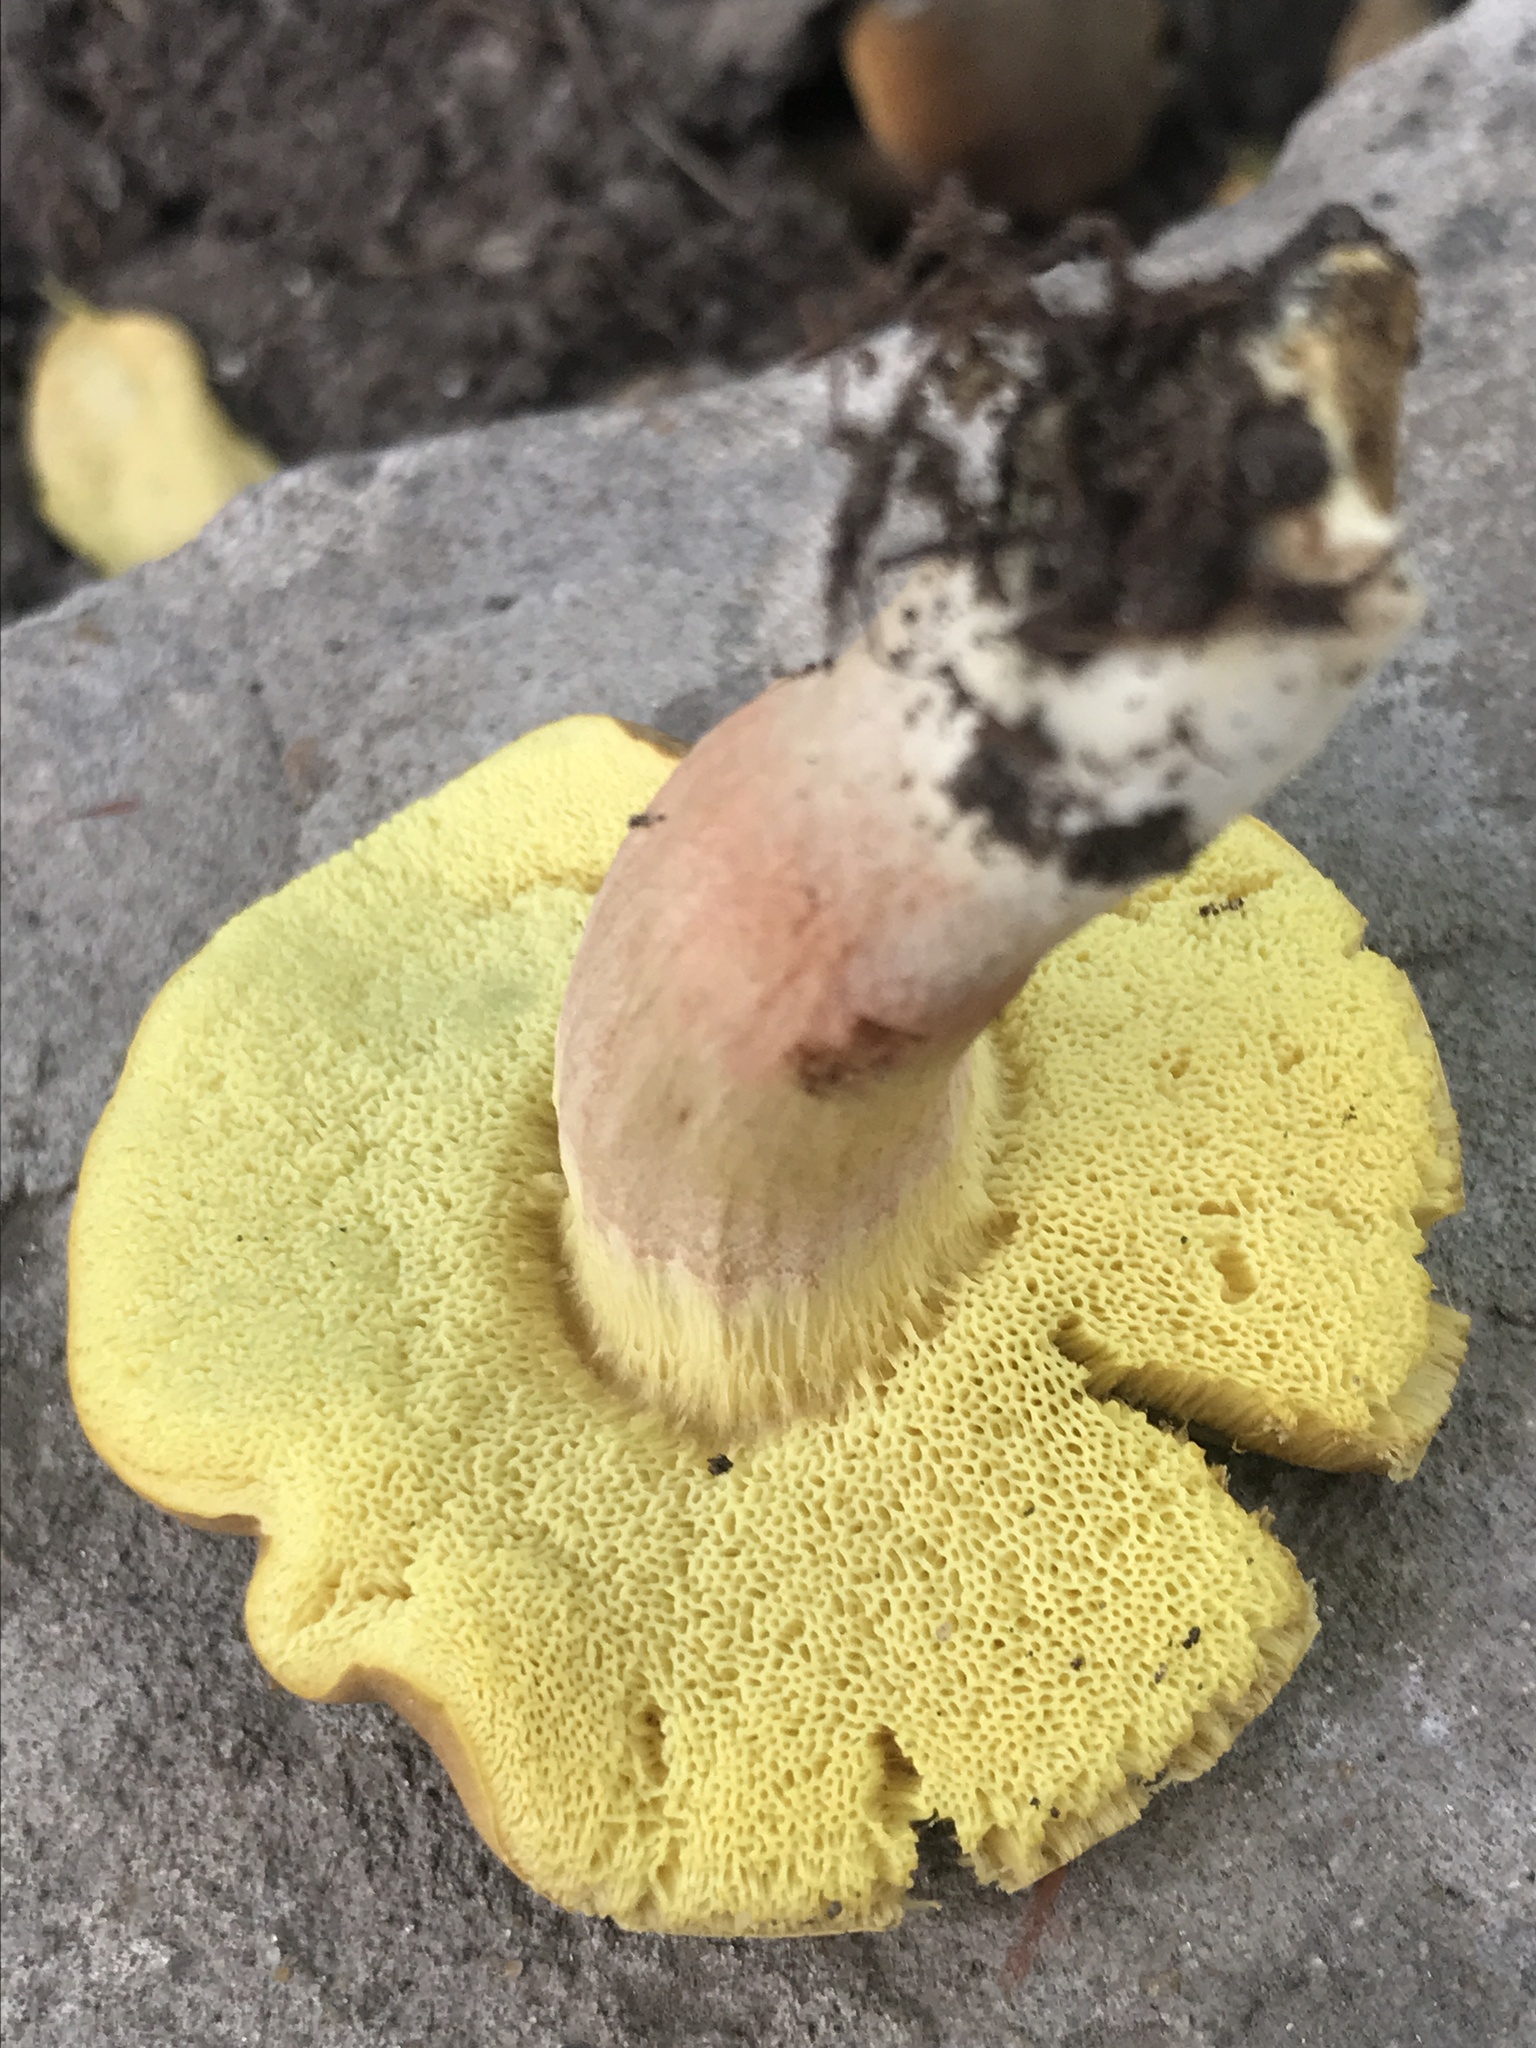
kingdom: Fungi
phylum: Basidiomycota
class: Agaricomycetes
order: Boletales
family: Boletaceae
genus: Xerocomellus
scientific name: Xerocomellus chrysenteron
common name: Red-cracking bolete
